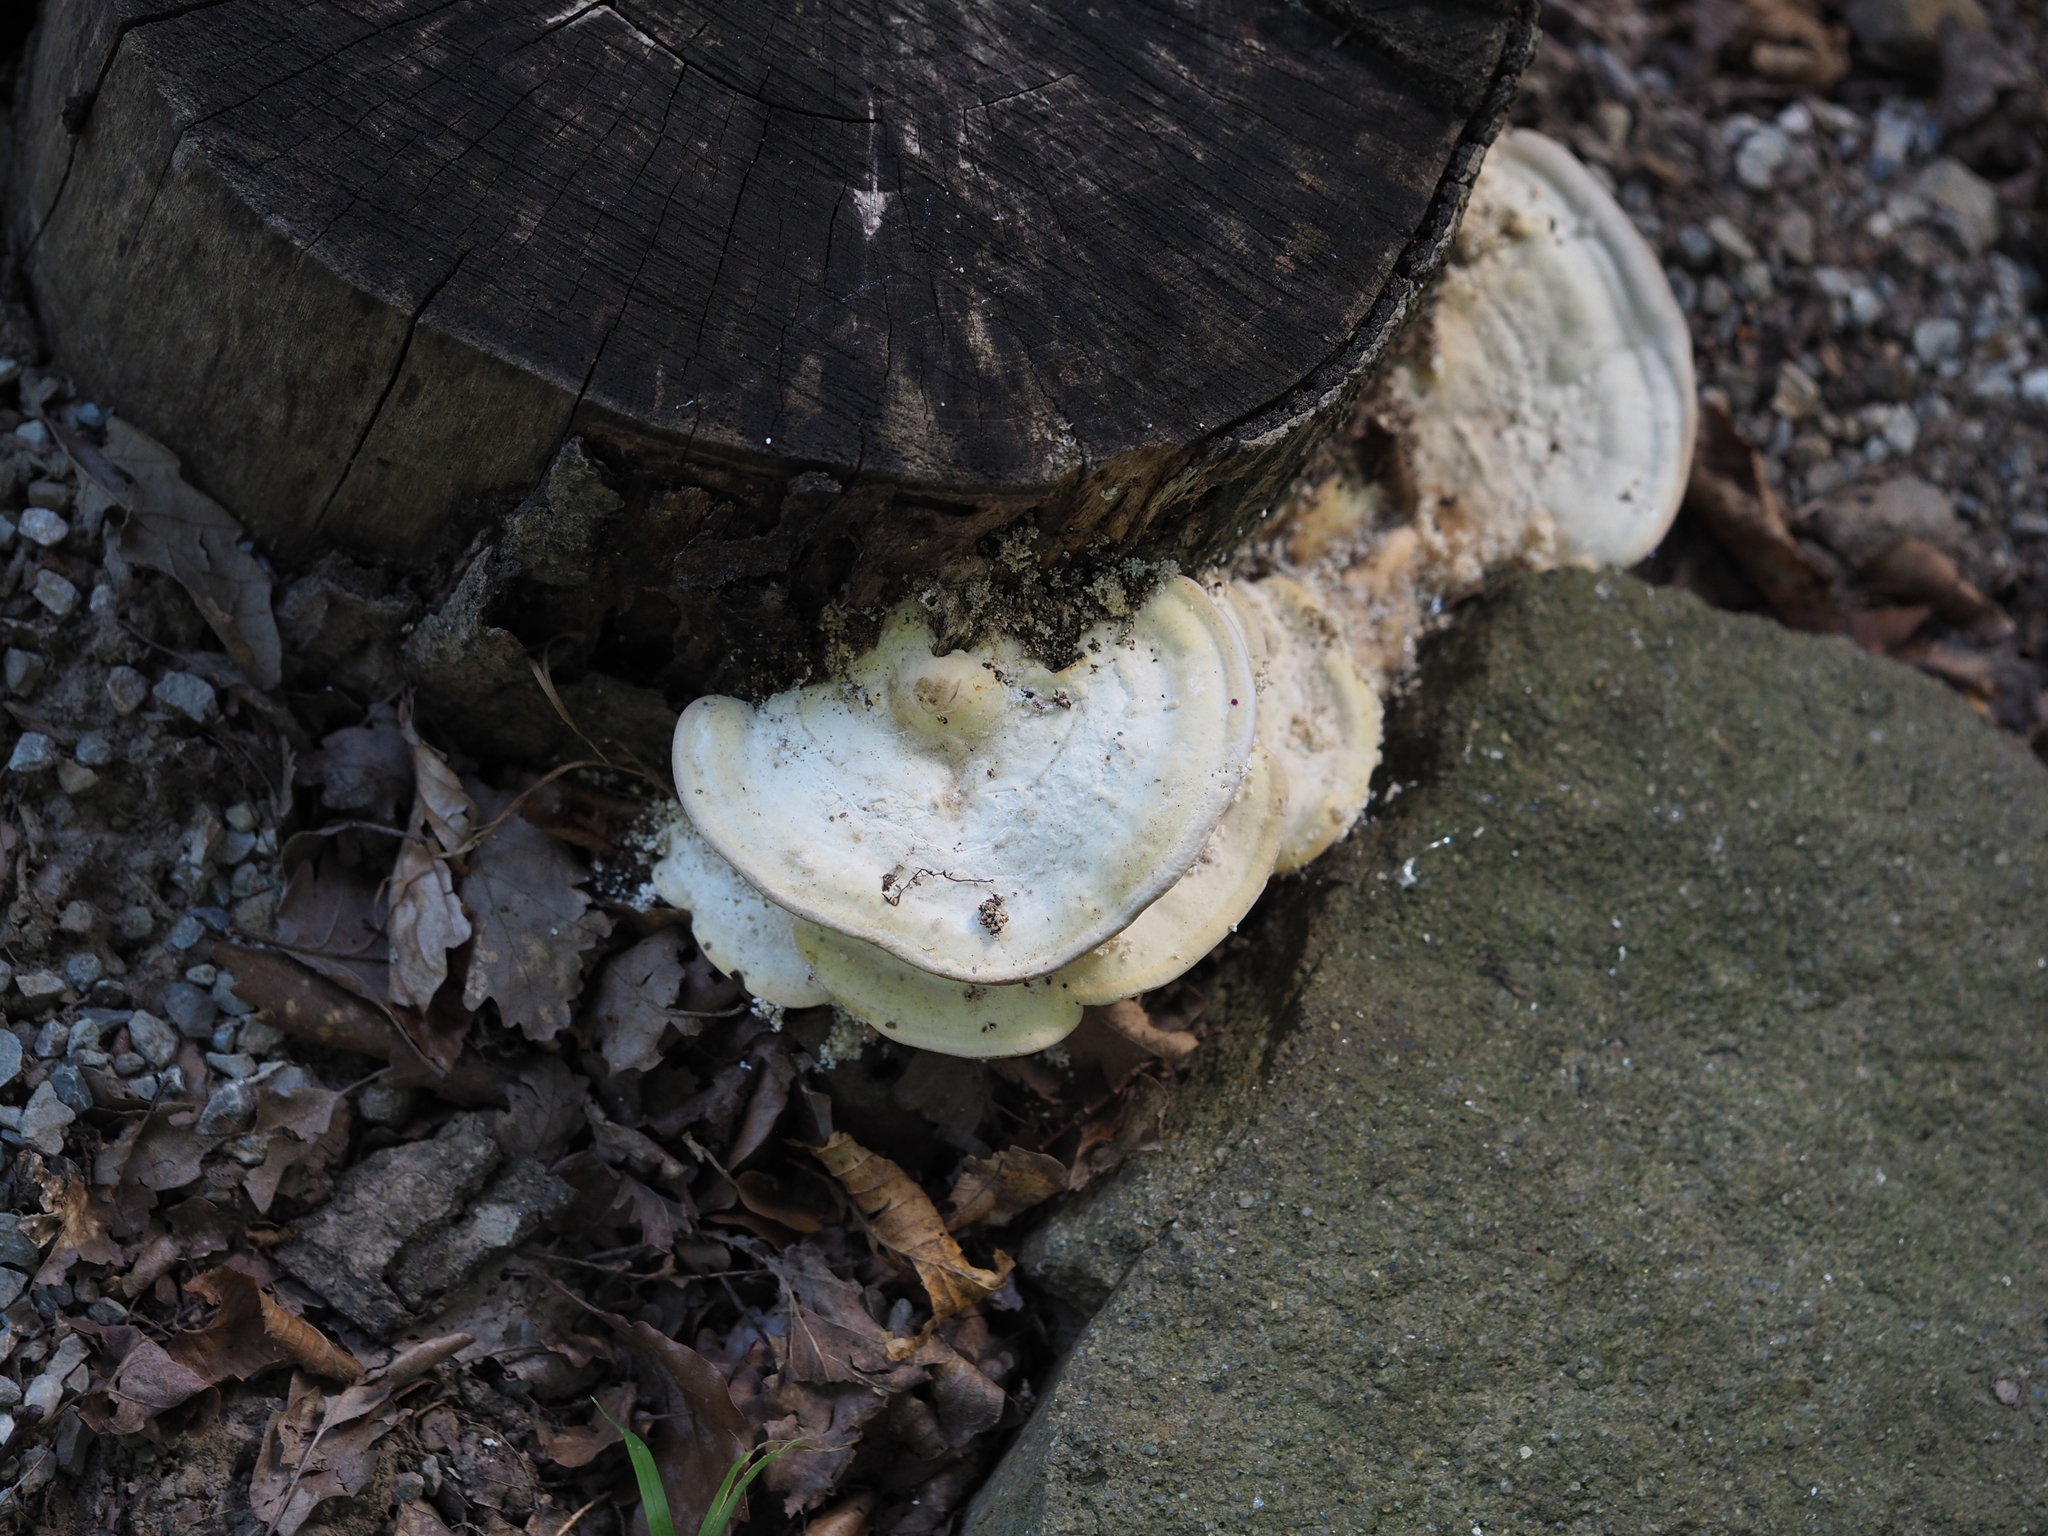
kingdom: Fungi
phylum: Basidiomycota
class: Agaricomycetes
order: Polyporales
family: Polyporaceae
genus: Trametes
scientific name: Trametes gibbosa
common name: Lumpy bracket
